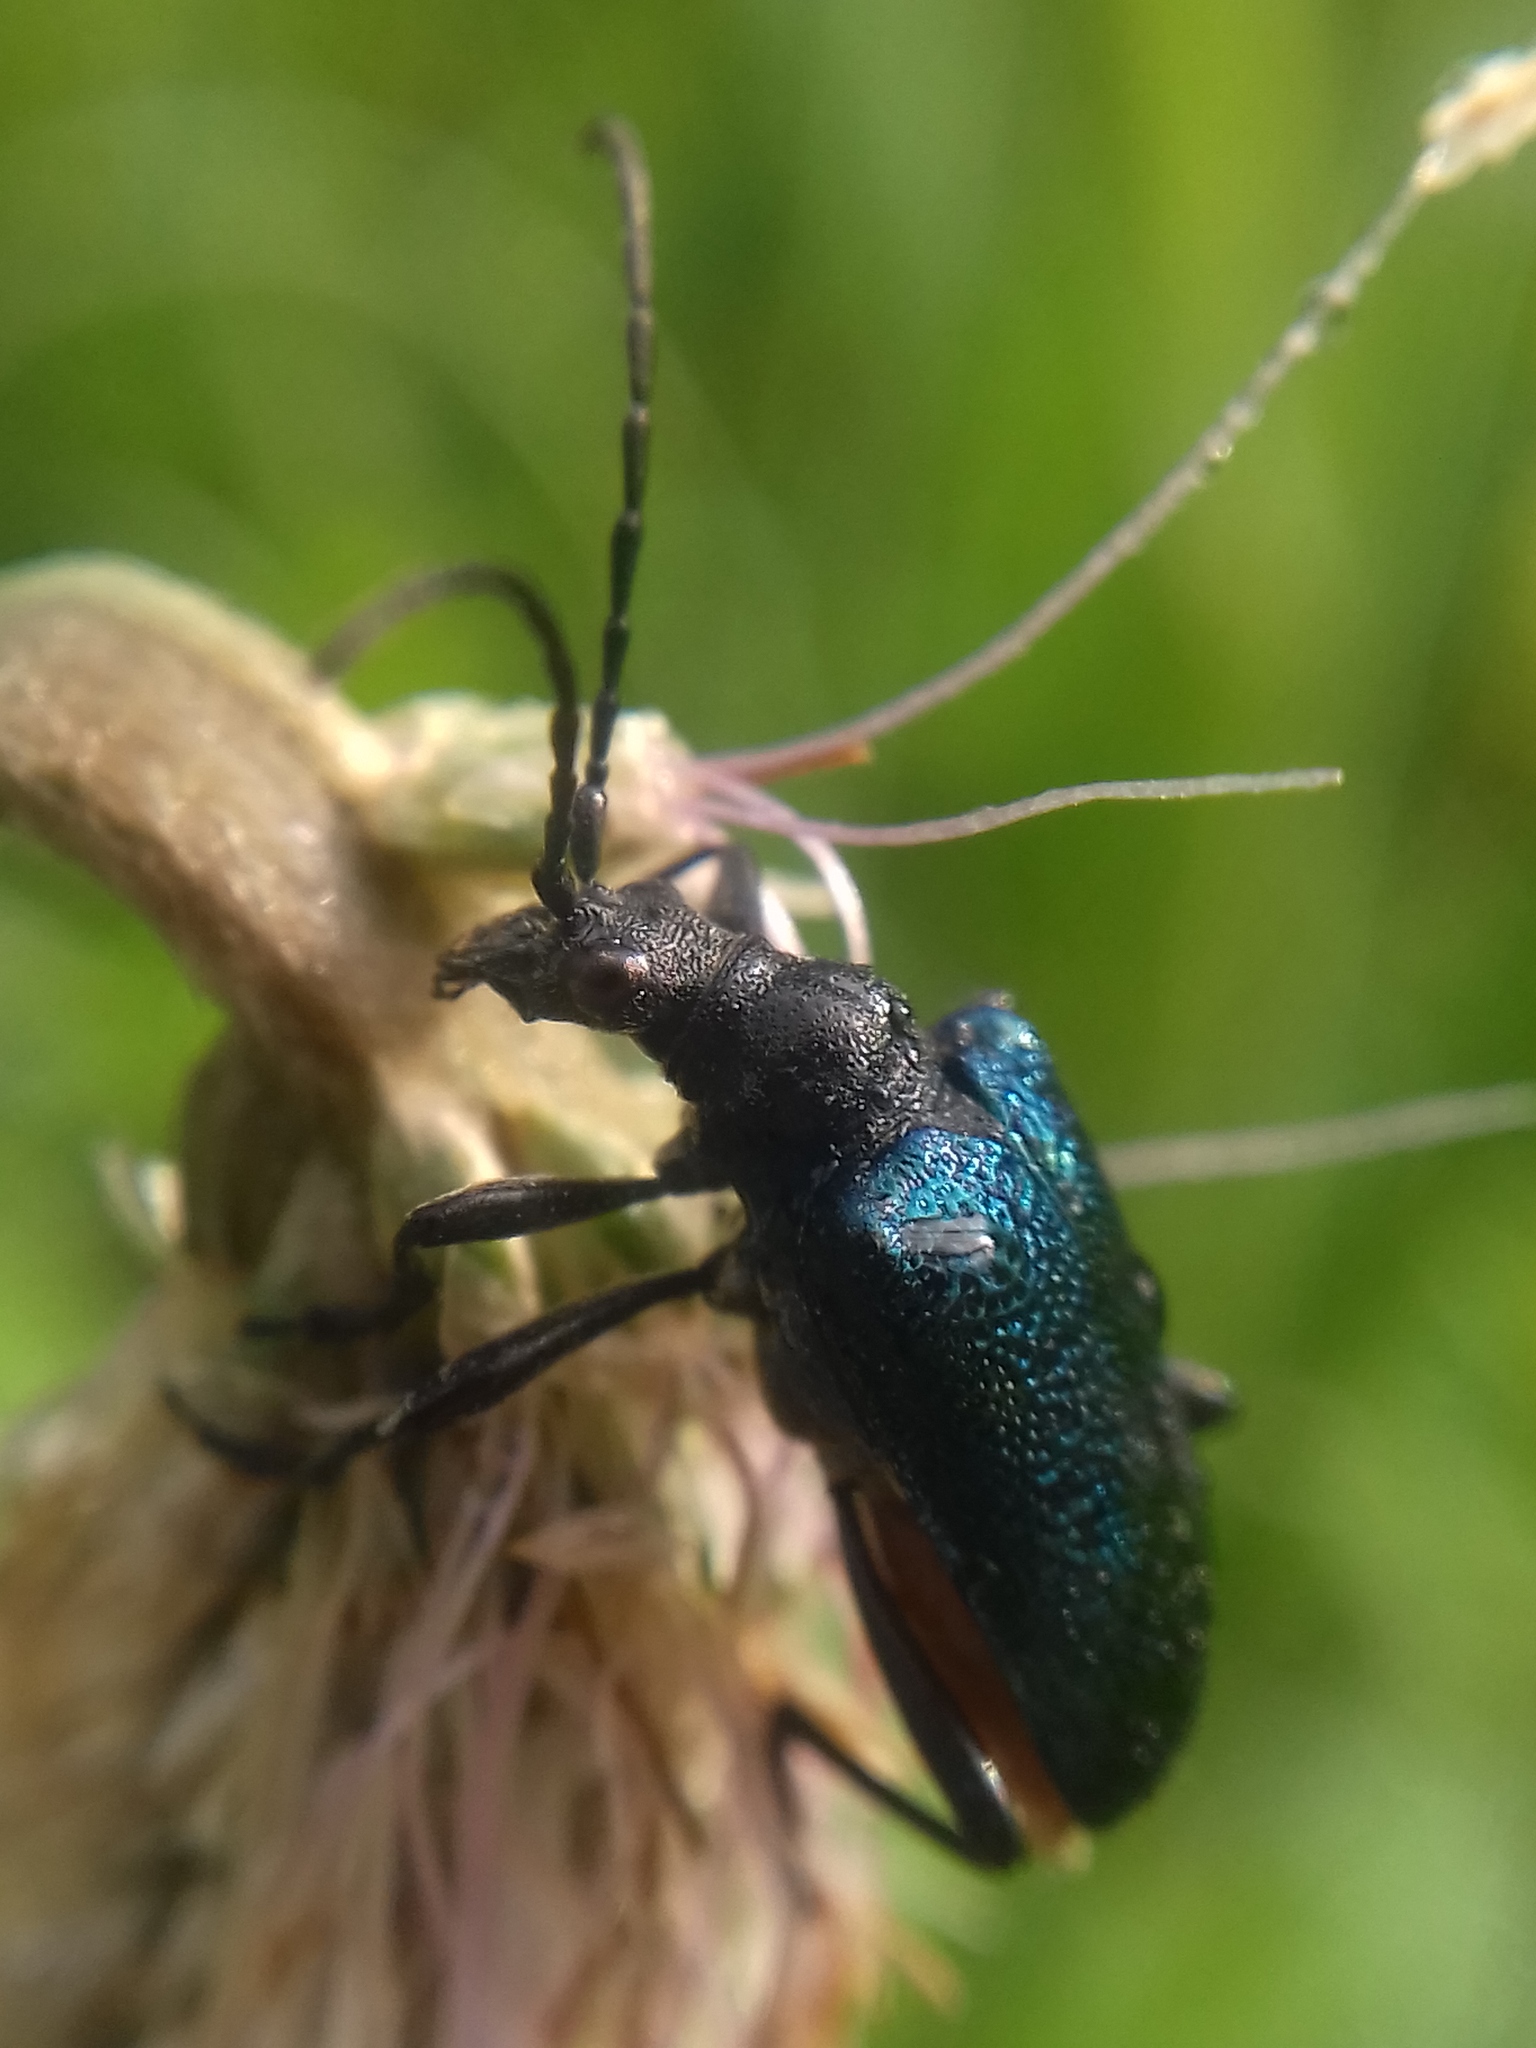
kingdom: Animalia
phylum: Arthropoda
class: Insecta
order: Coleoptera
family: Cerambycidae
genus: Gaurotes
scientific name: Gaurotes virginea
